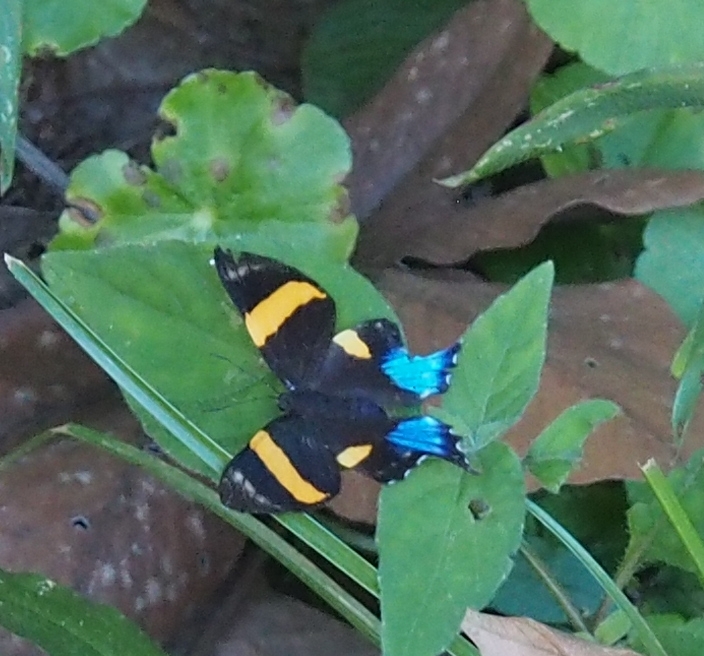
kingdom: Animalia
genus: Ancyluris
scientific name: Ancyluris inca
